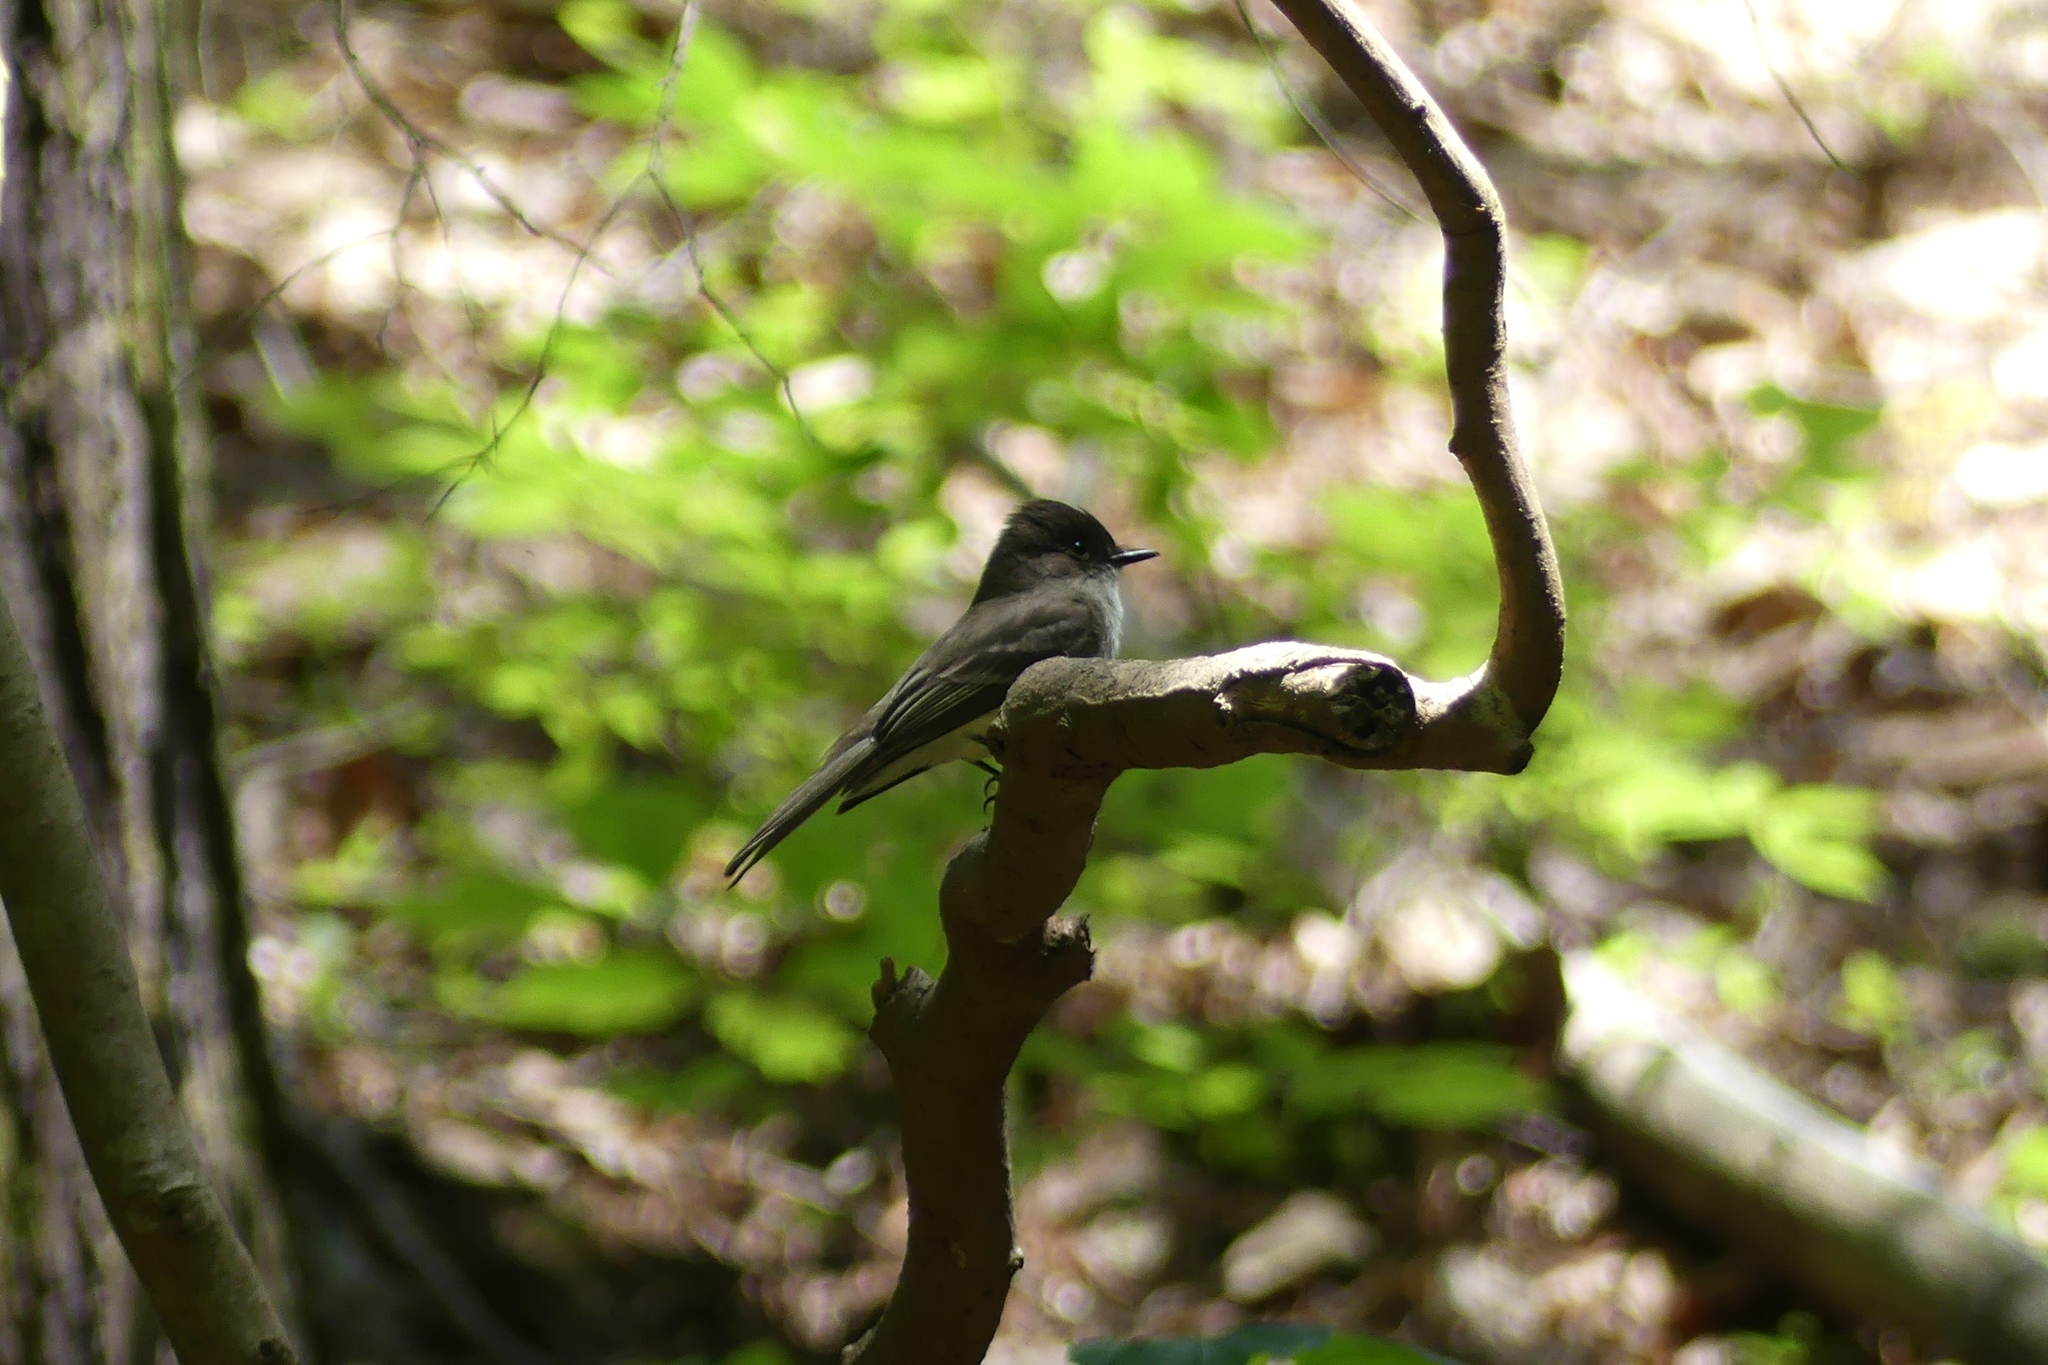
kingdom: Animalia
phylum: Chordata
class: Aves
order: Passeriformes
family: Tyrannidae
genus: Sayornis
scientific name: Sayornis phoebe
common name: Eastern phoebe
